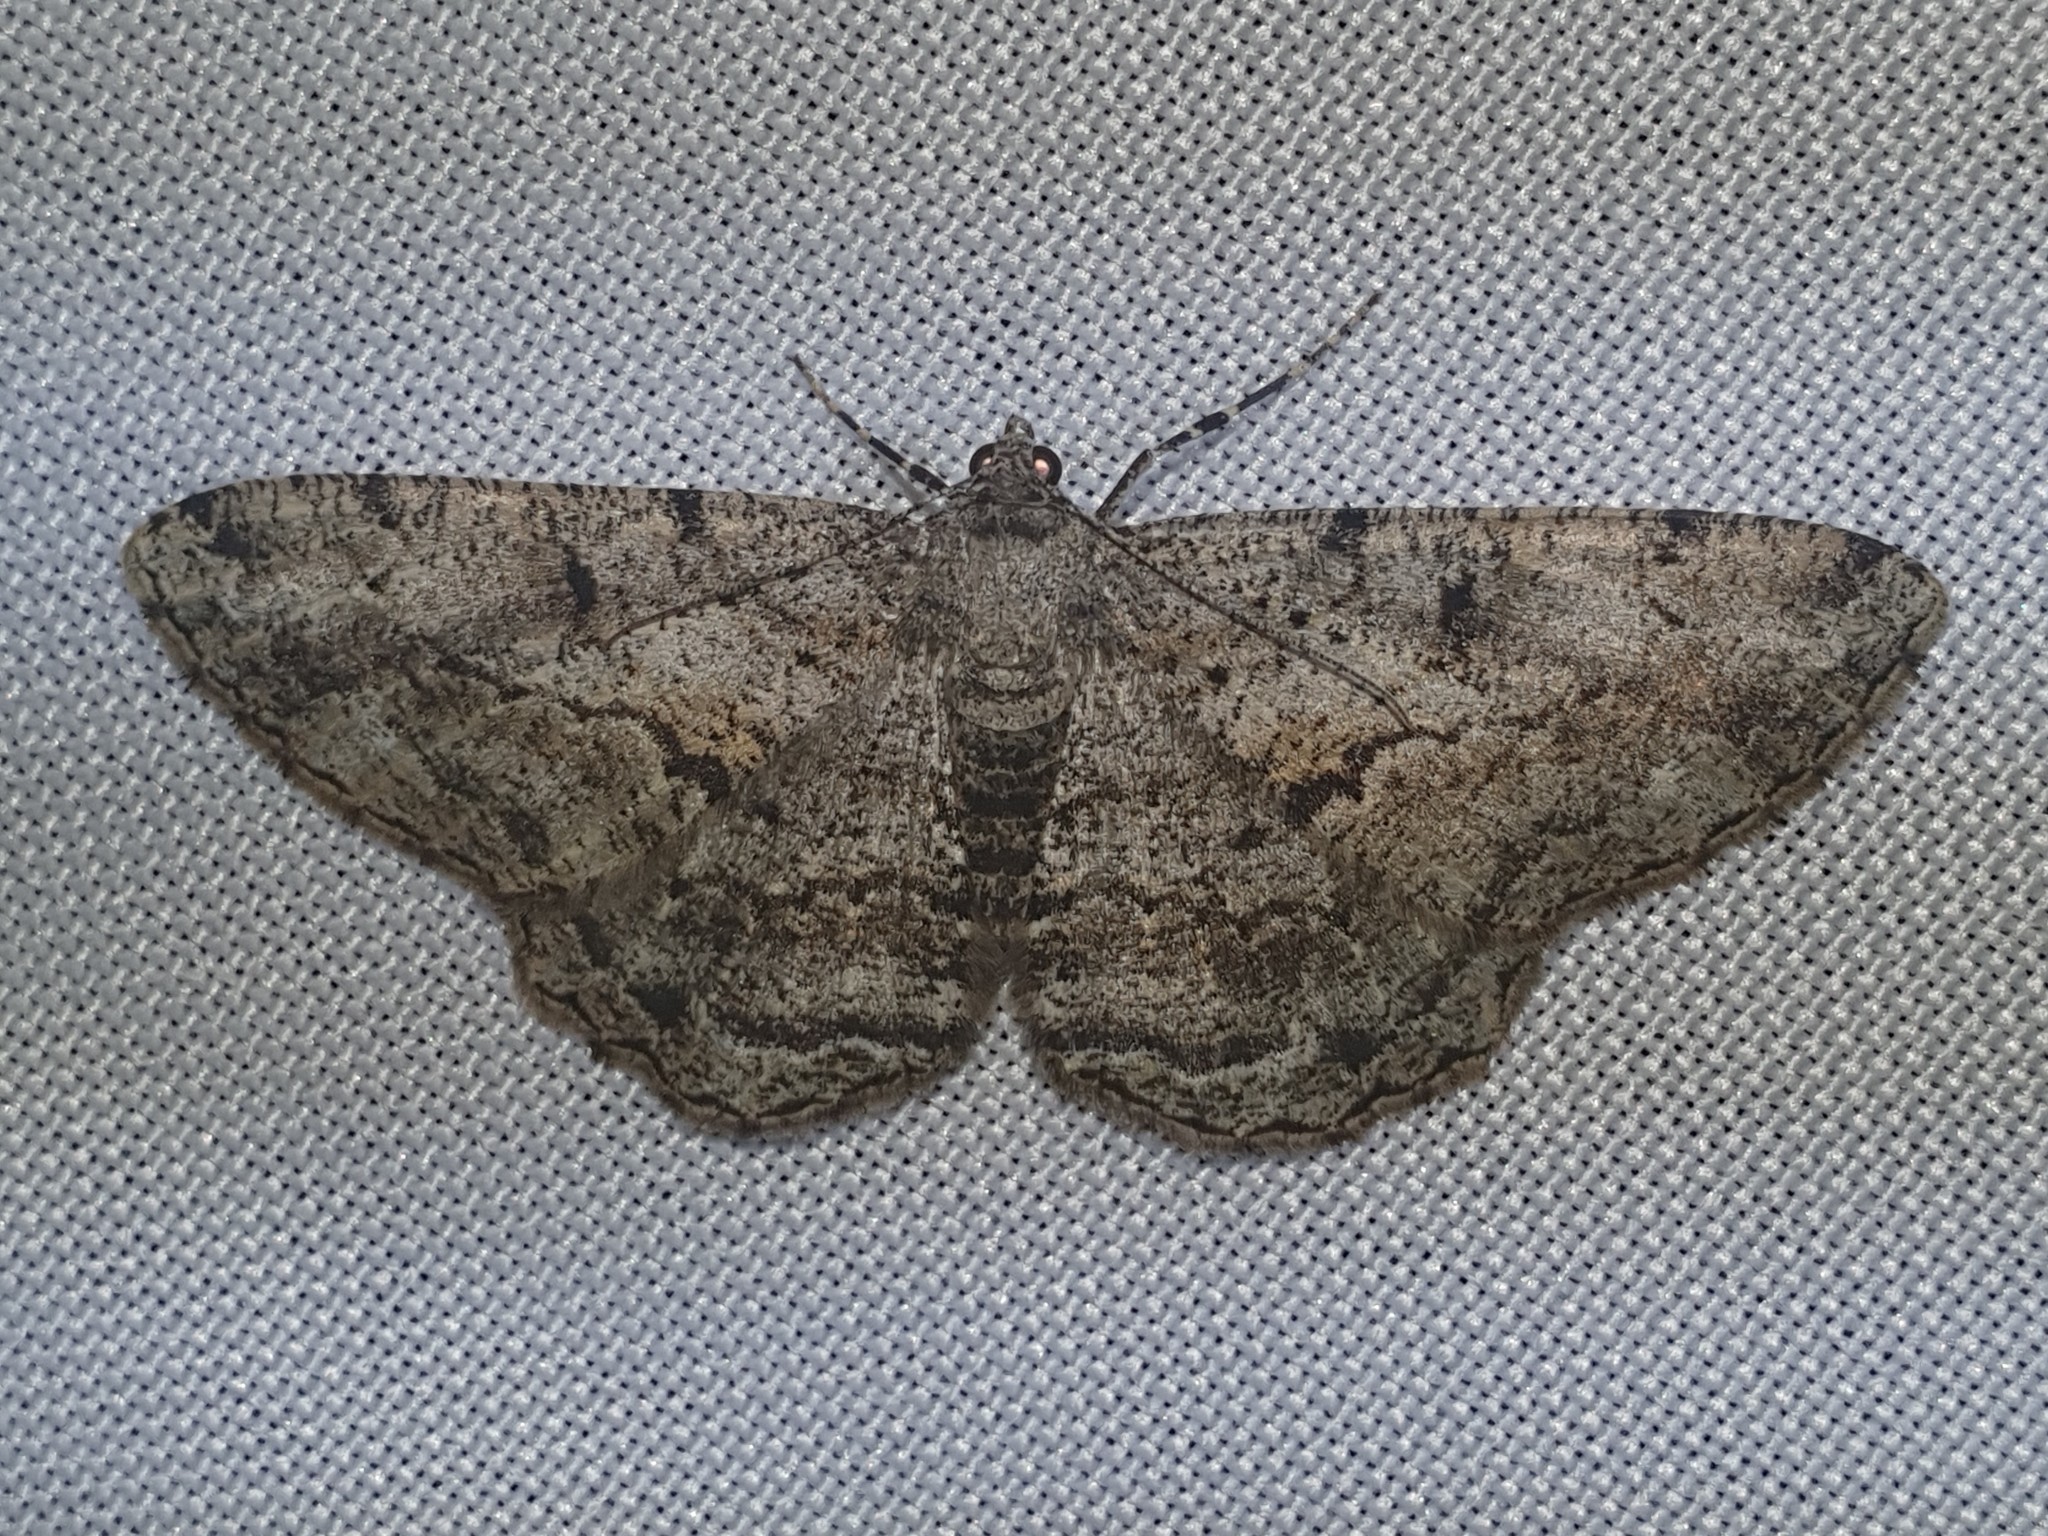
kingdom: Animalia
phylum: Arthropoda
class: Insecta
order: Lepidoptera
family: Geometridae
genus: Peribatodes
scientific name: Peribatodes rhomboidaria
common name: Willow beauty
